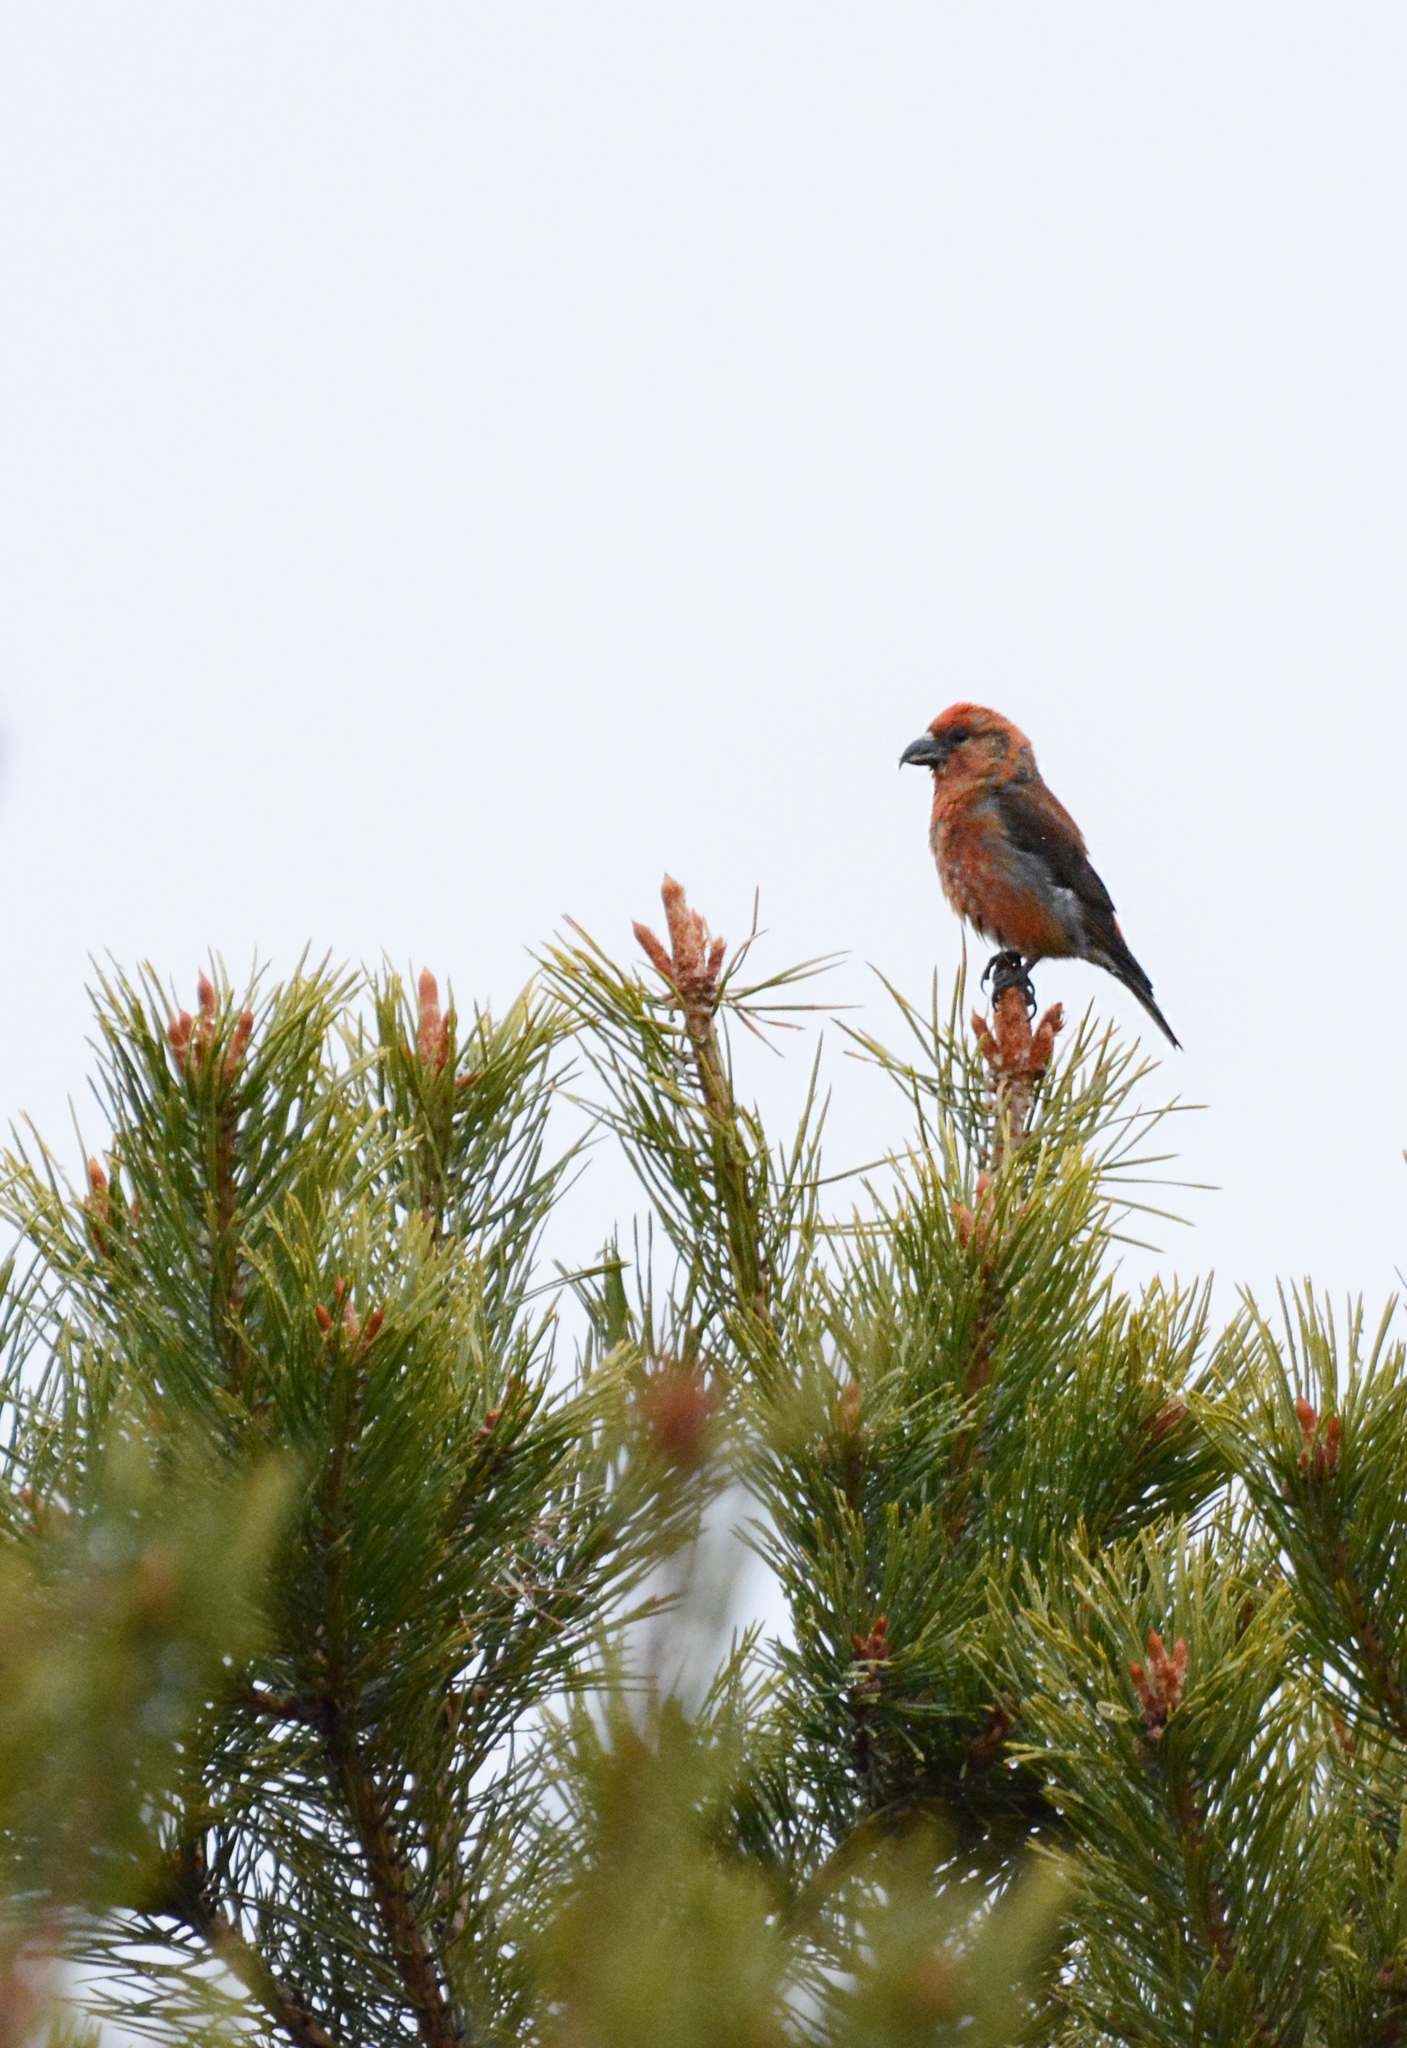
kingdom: Animalia
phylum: Chordata
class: Aves
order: Passeriformes
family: Fringillidae
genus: Loxia
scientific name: Loxia curvirostra
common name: Red crossbill
